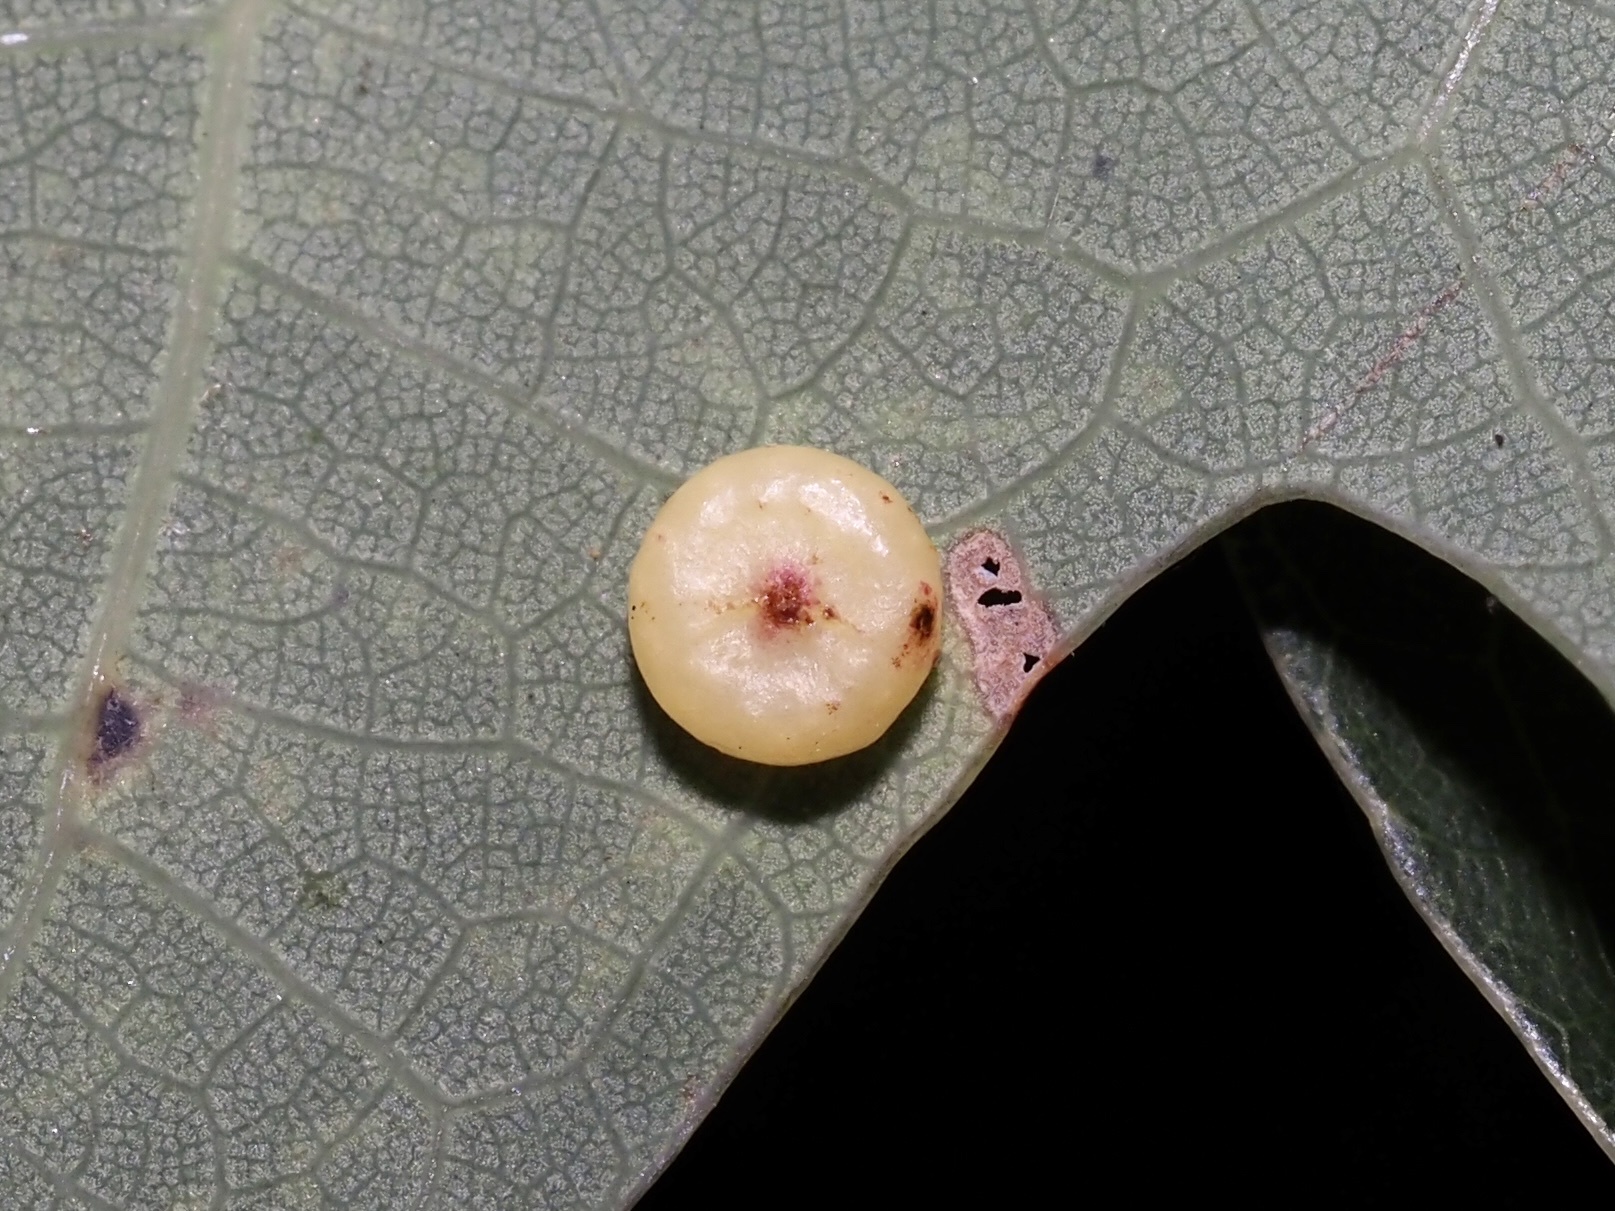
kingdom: Animalia
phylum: Arthropoda
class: Insecta
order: Hymenoptera
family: Cynipidae
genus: Andricus
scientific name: Andricus
